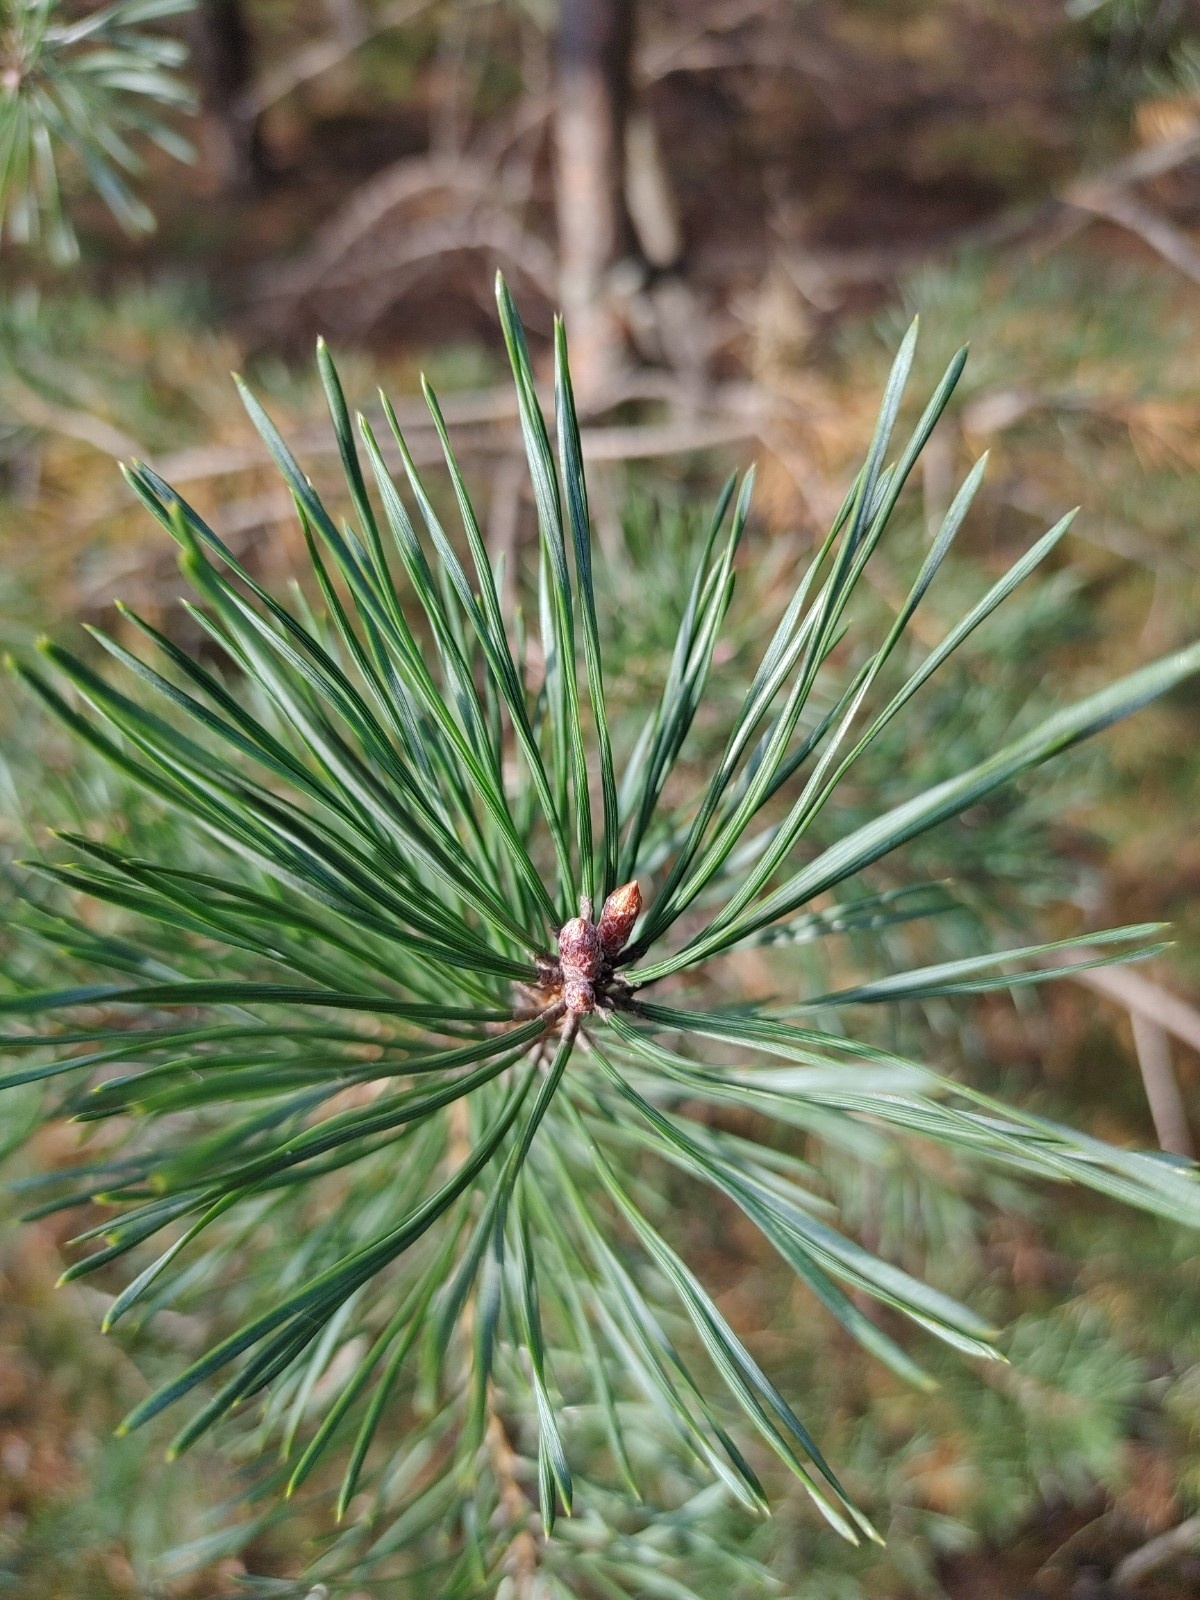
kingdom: Plantae
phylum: Tracheophyta
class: Pinopsida
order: Pinales
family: Pinaceae
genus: Pinus
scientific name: Pinus sylvestris
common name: Scots pine
